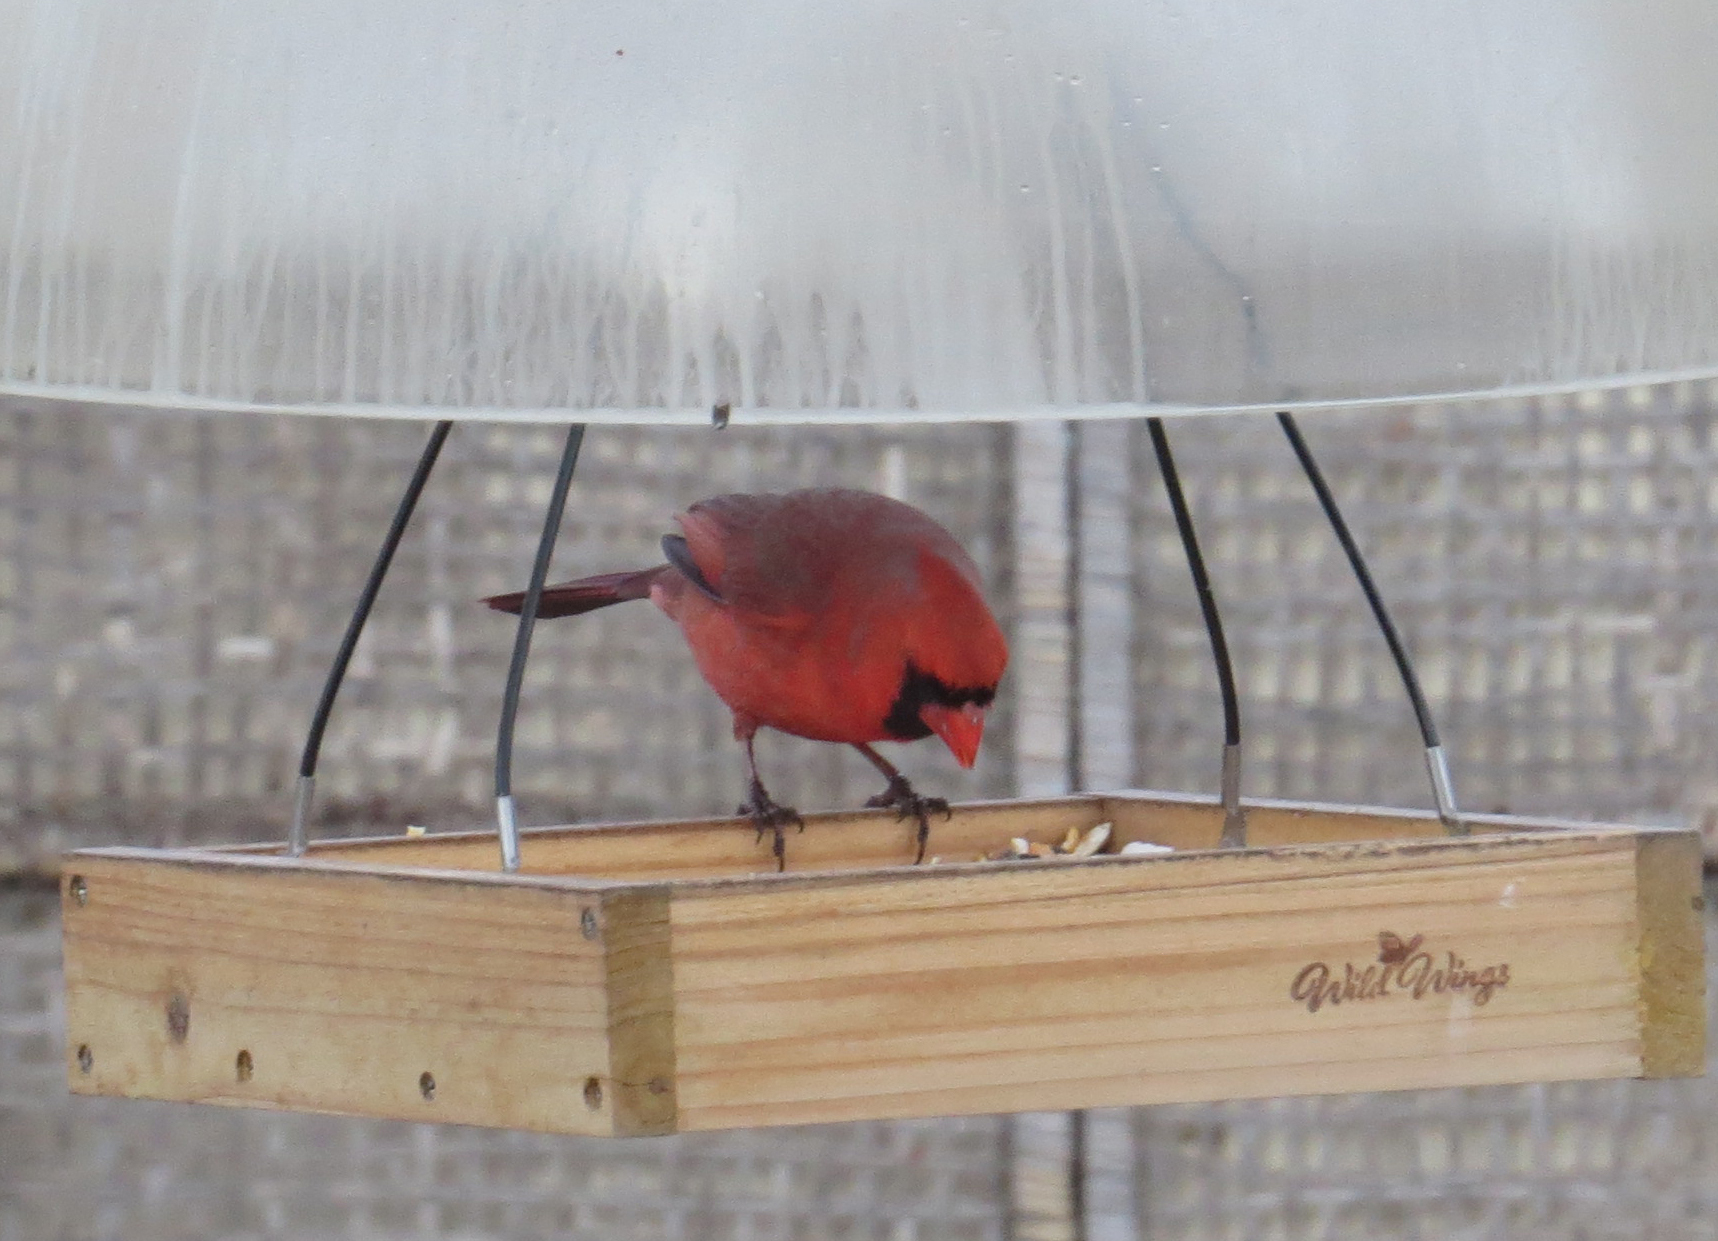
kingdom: Animalia
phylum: Chordata
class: Aves
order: Passeriformes
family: Cardinalidae
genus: Cardinalis
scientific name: Cardinalis cardinalis
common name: Northern cardinal
